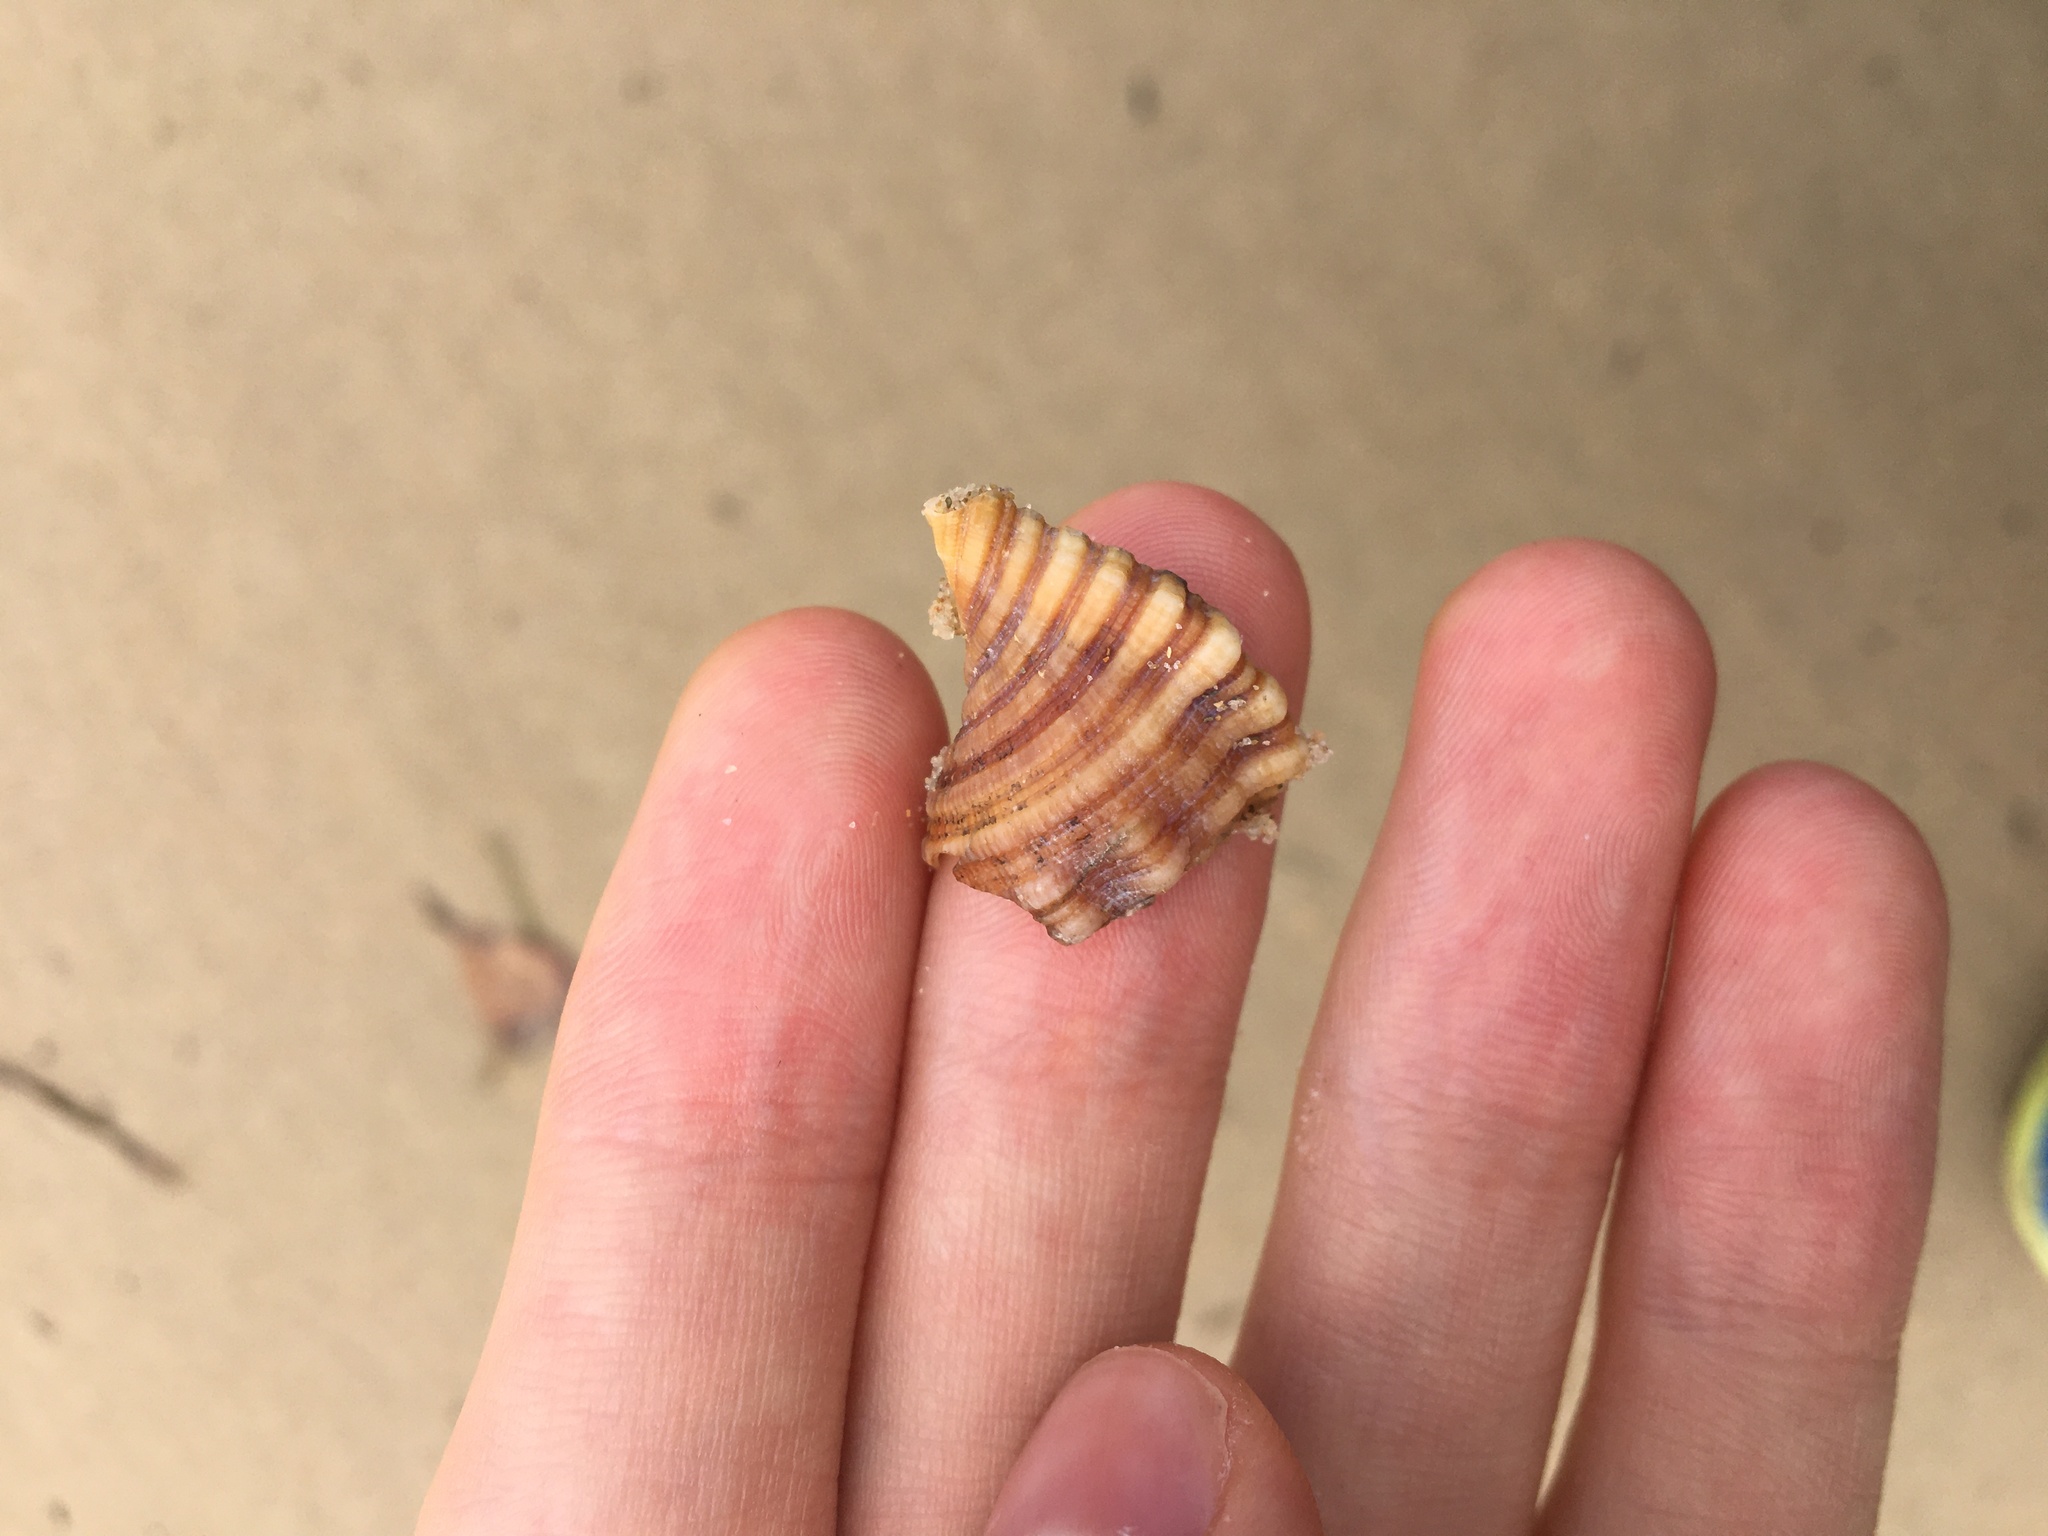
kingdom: Animalia
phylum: Mollusca
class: Gastropoda
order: Littorinimorpha
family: Cymatiidae
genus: Cabestana
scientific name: Cabestana spengleri
